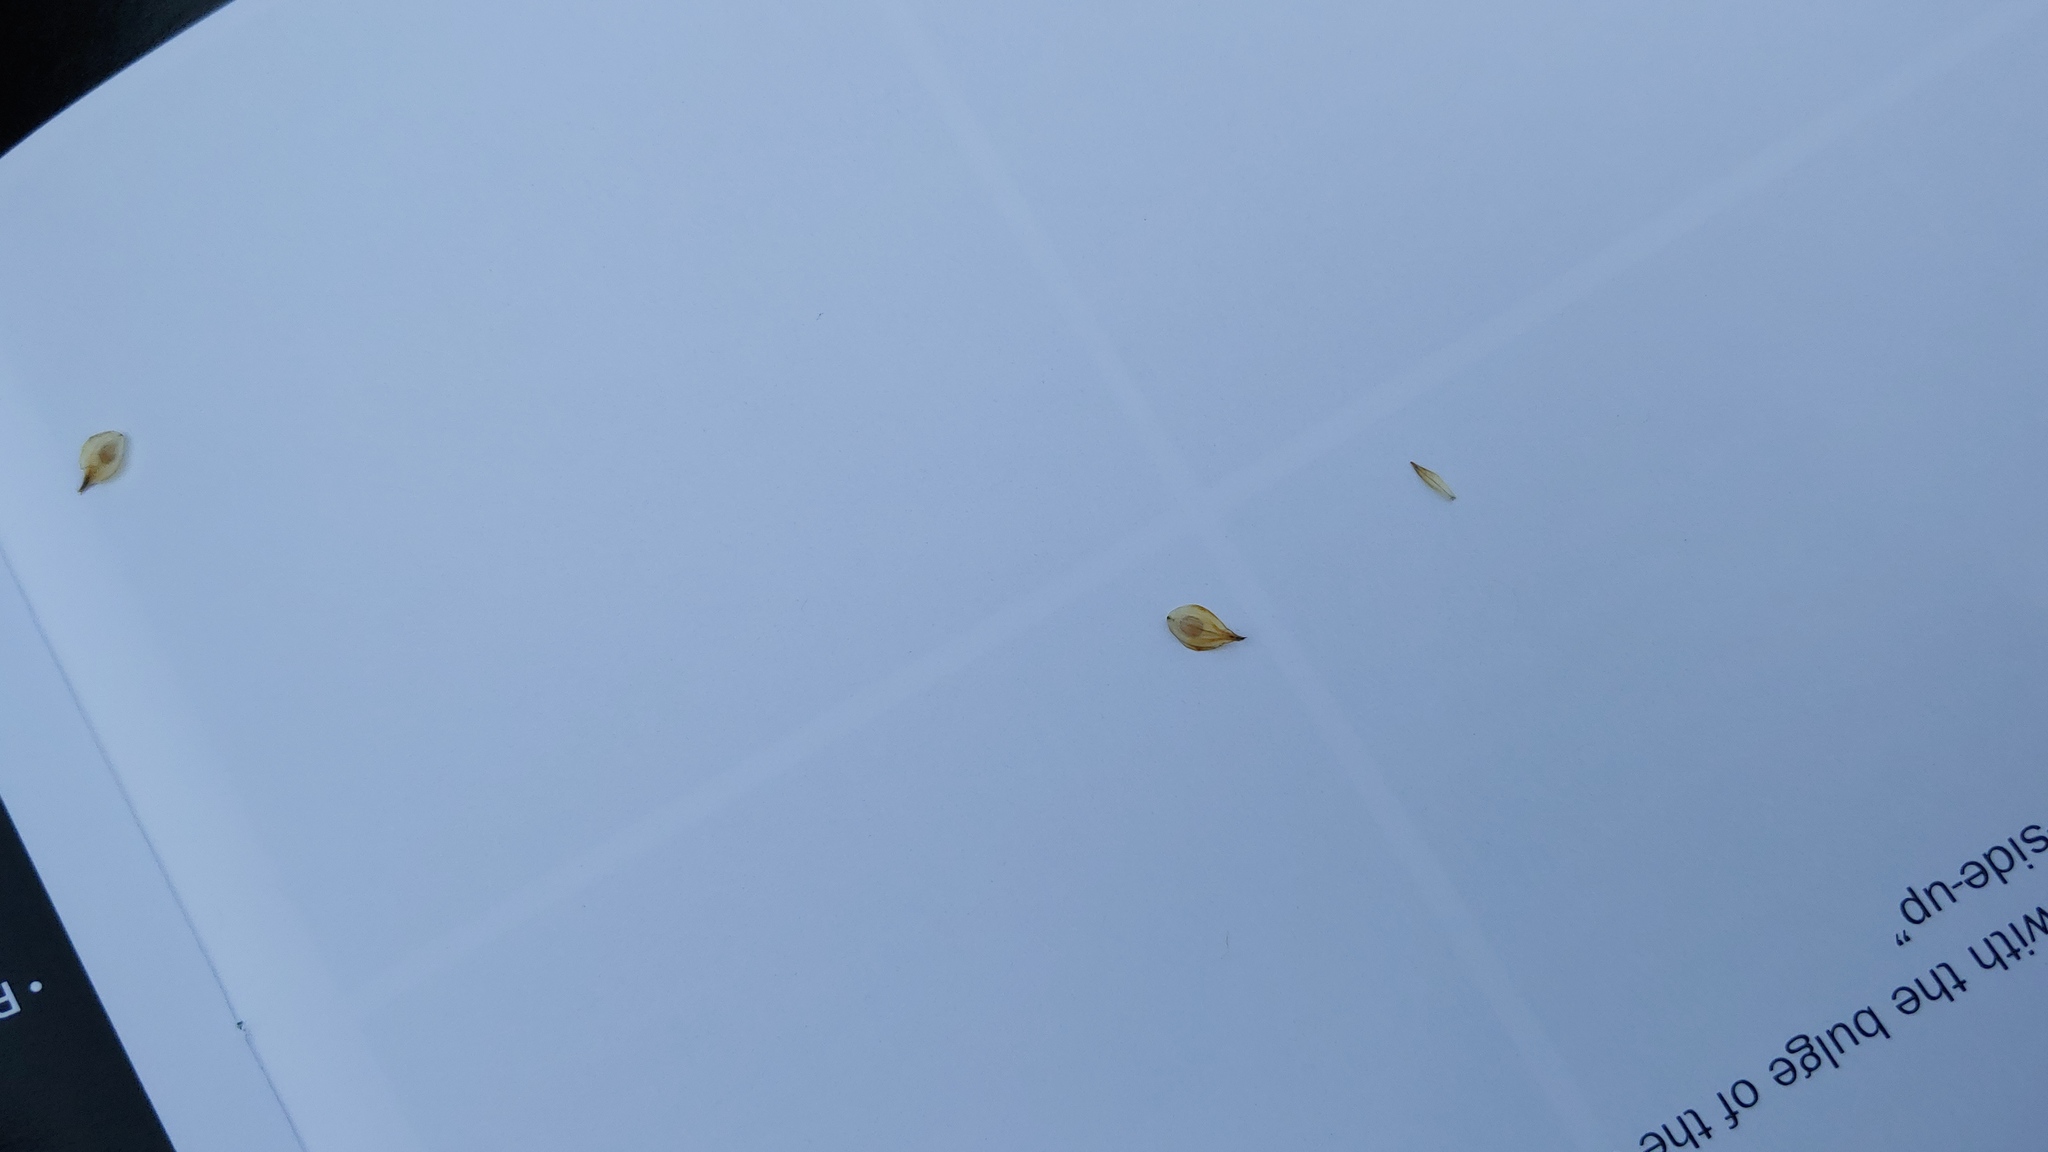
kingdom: Plantae
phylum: Tracheophyta
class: Liliopsida
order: Poales
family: Cyperaceae
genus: Carex
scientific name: Carex bicknellii
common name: Bicknell's sedge
